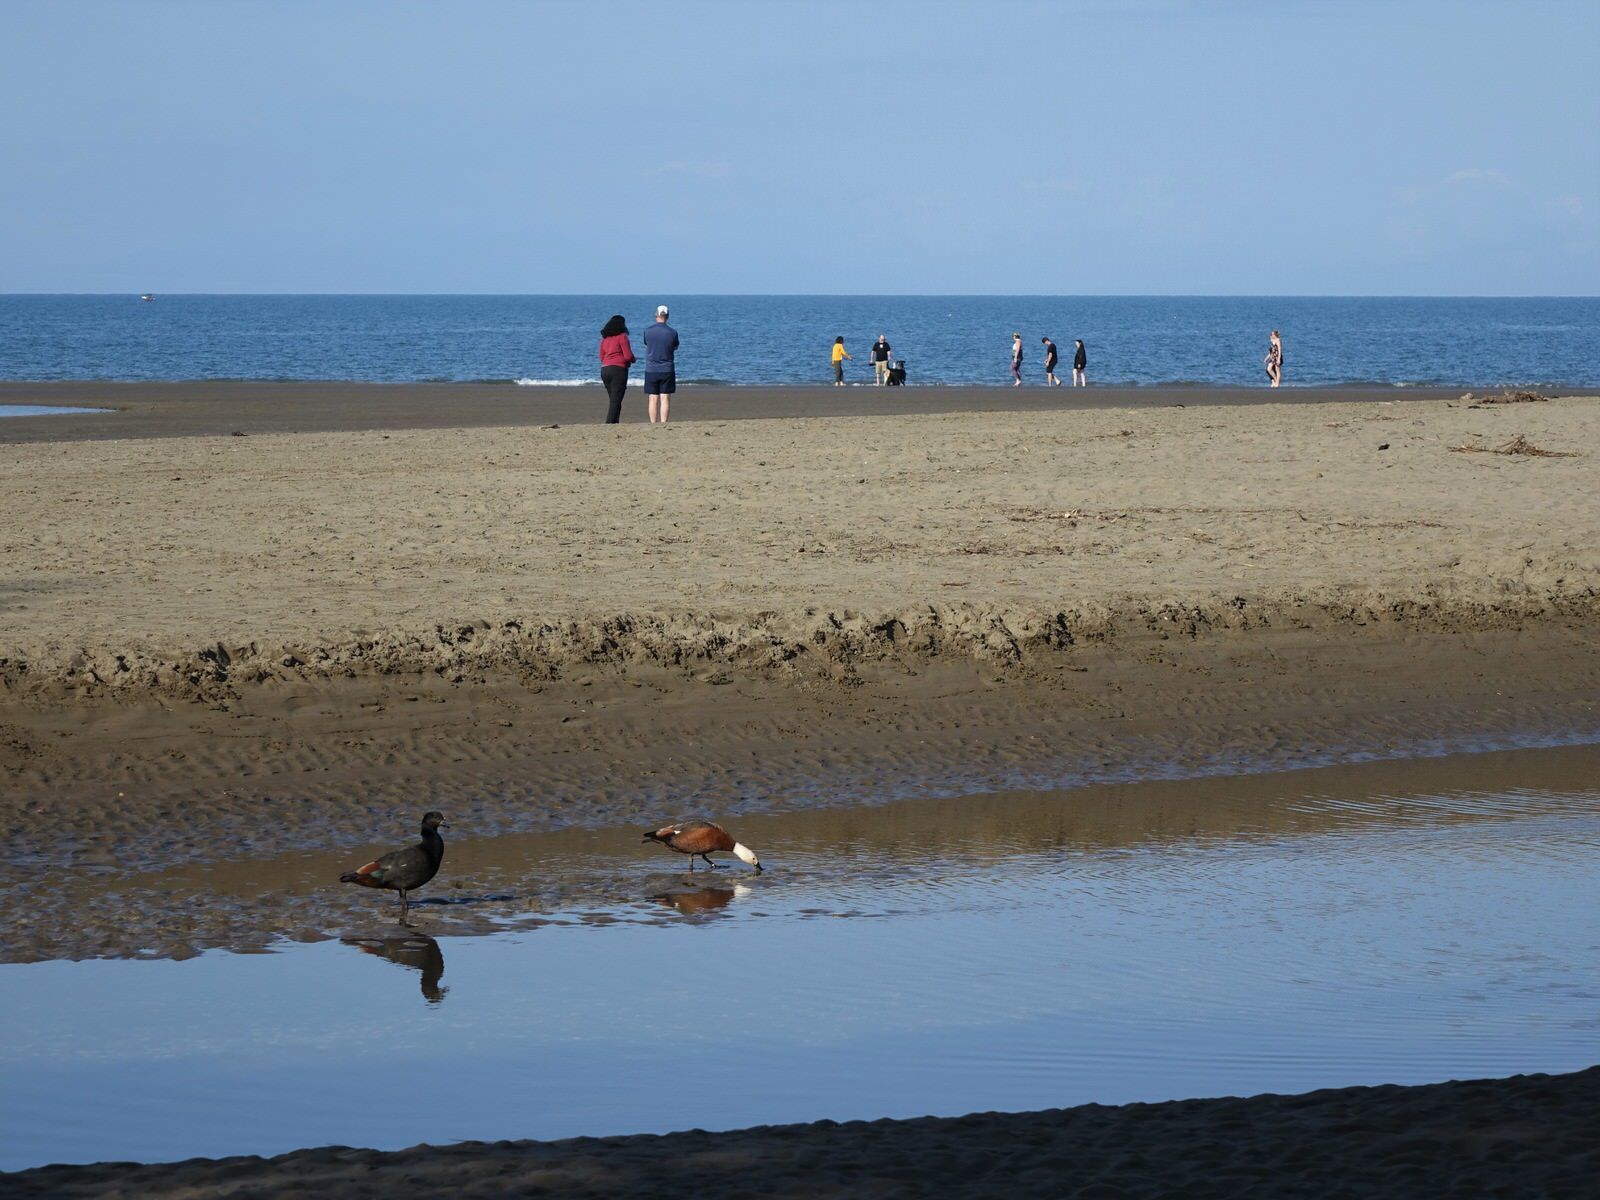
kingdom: Animalia
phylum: Chordata
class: Aves
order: Anseriformes
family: Anatidae
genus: Tadorna
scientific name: Tadorna variegata
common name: Paradise shelduck
